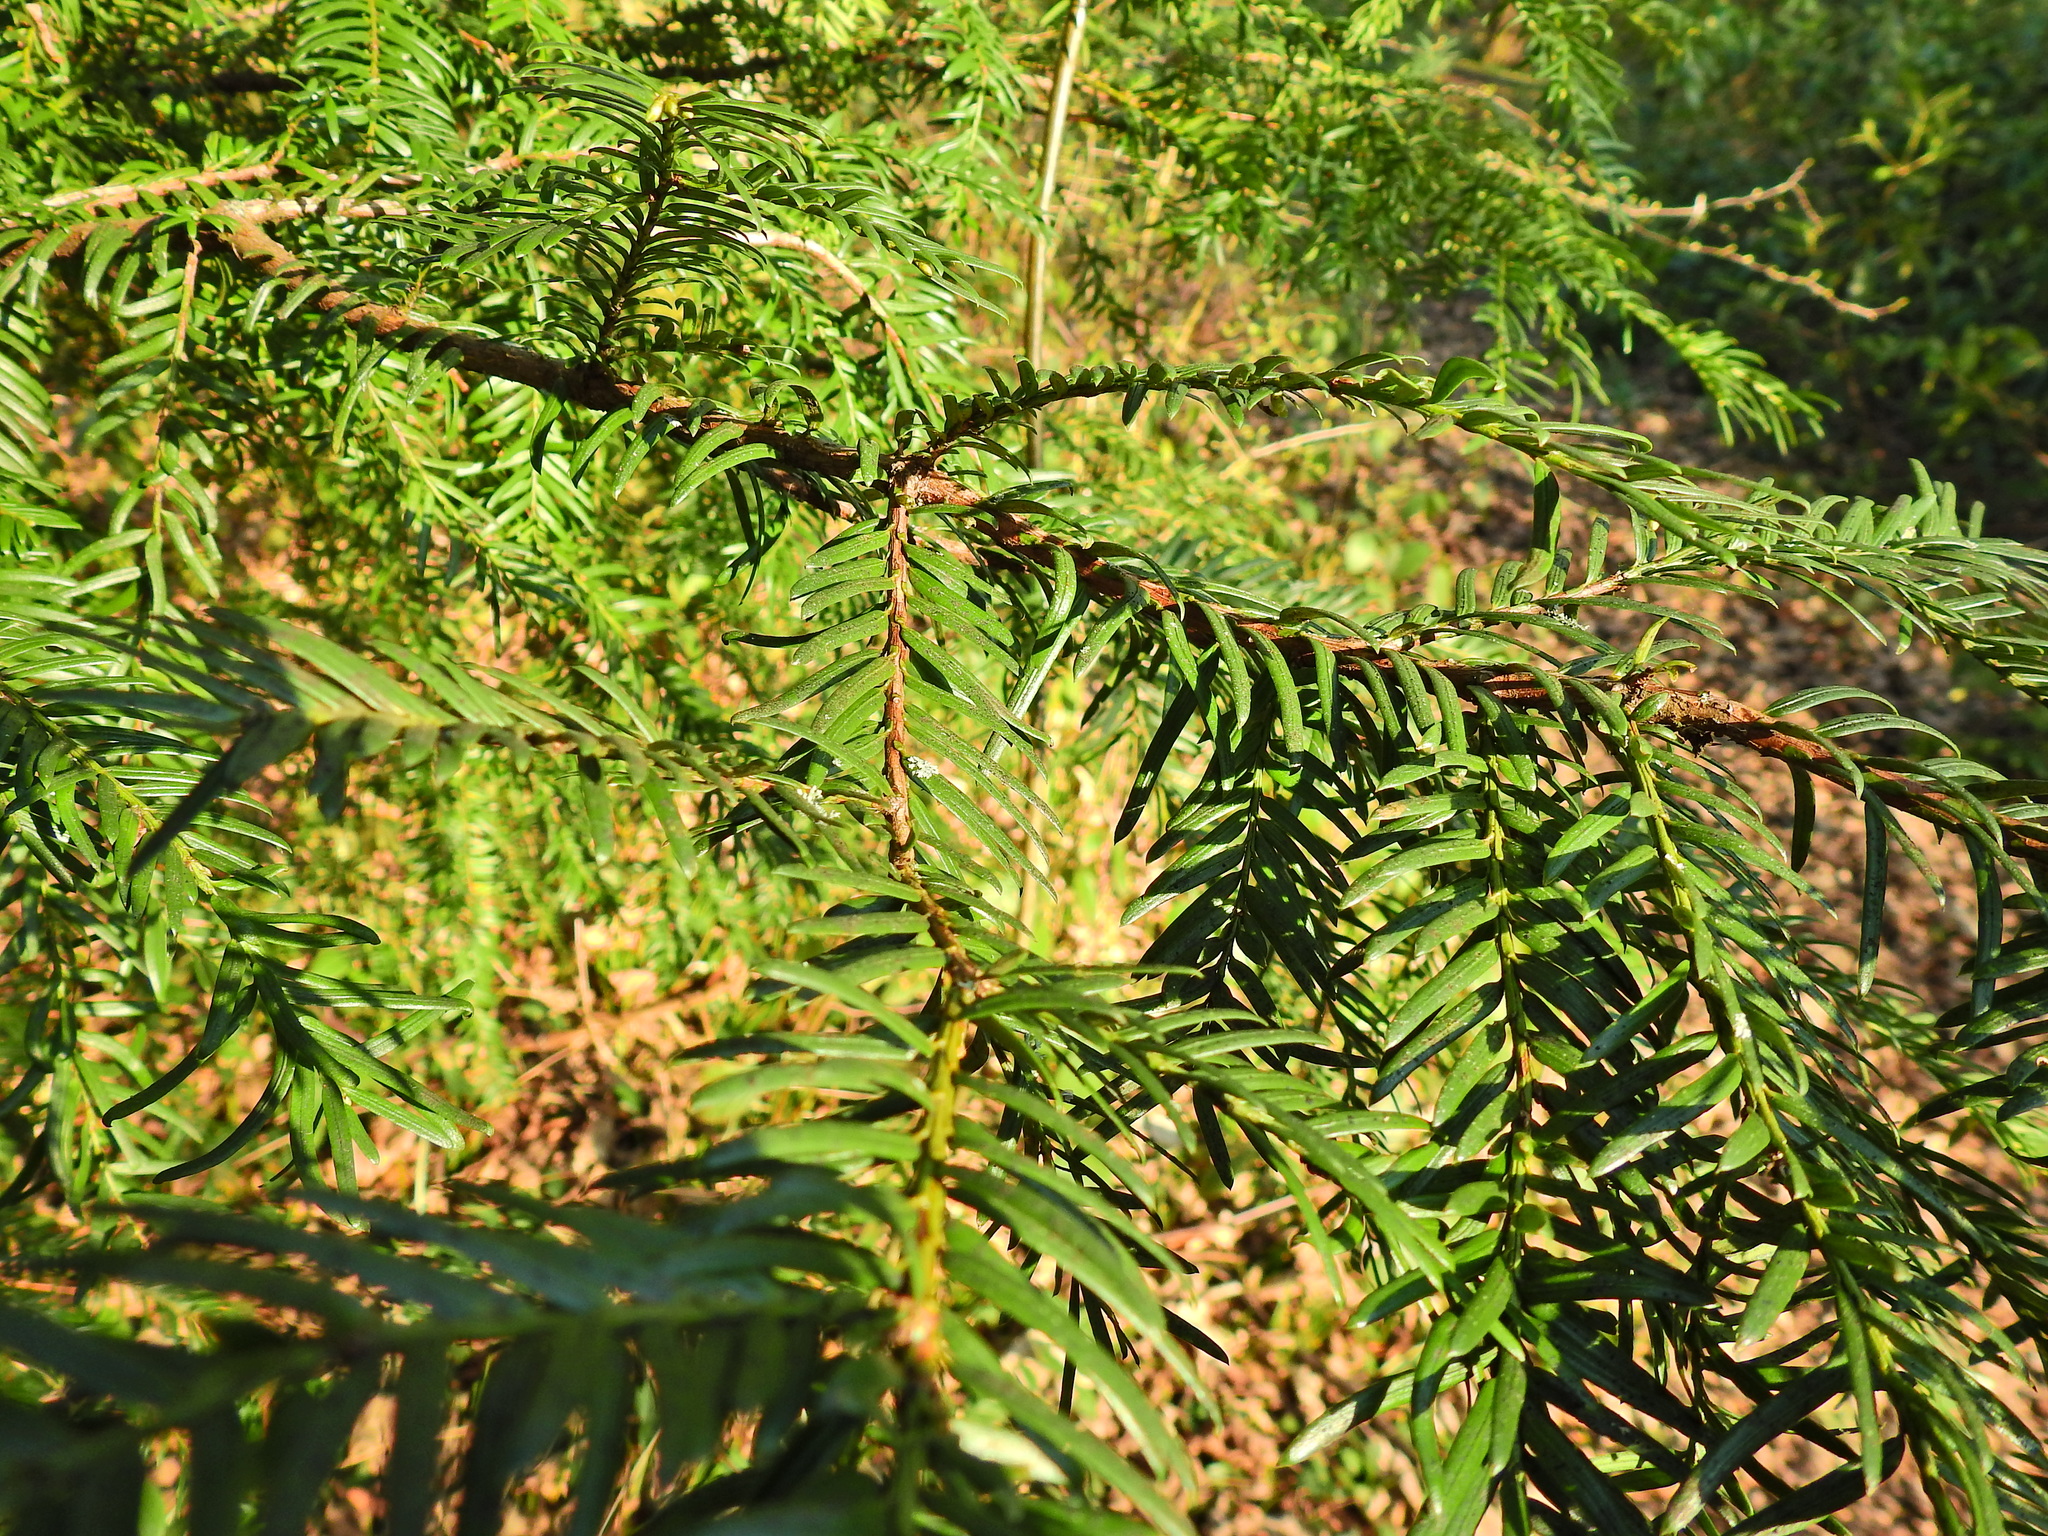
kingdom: Plantae
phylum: Tracheophyta
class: Pinopsida
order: Pinales
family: Taxaceae
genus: Taxus
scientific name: Taxus baccata
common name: Yew
